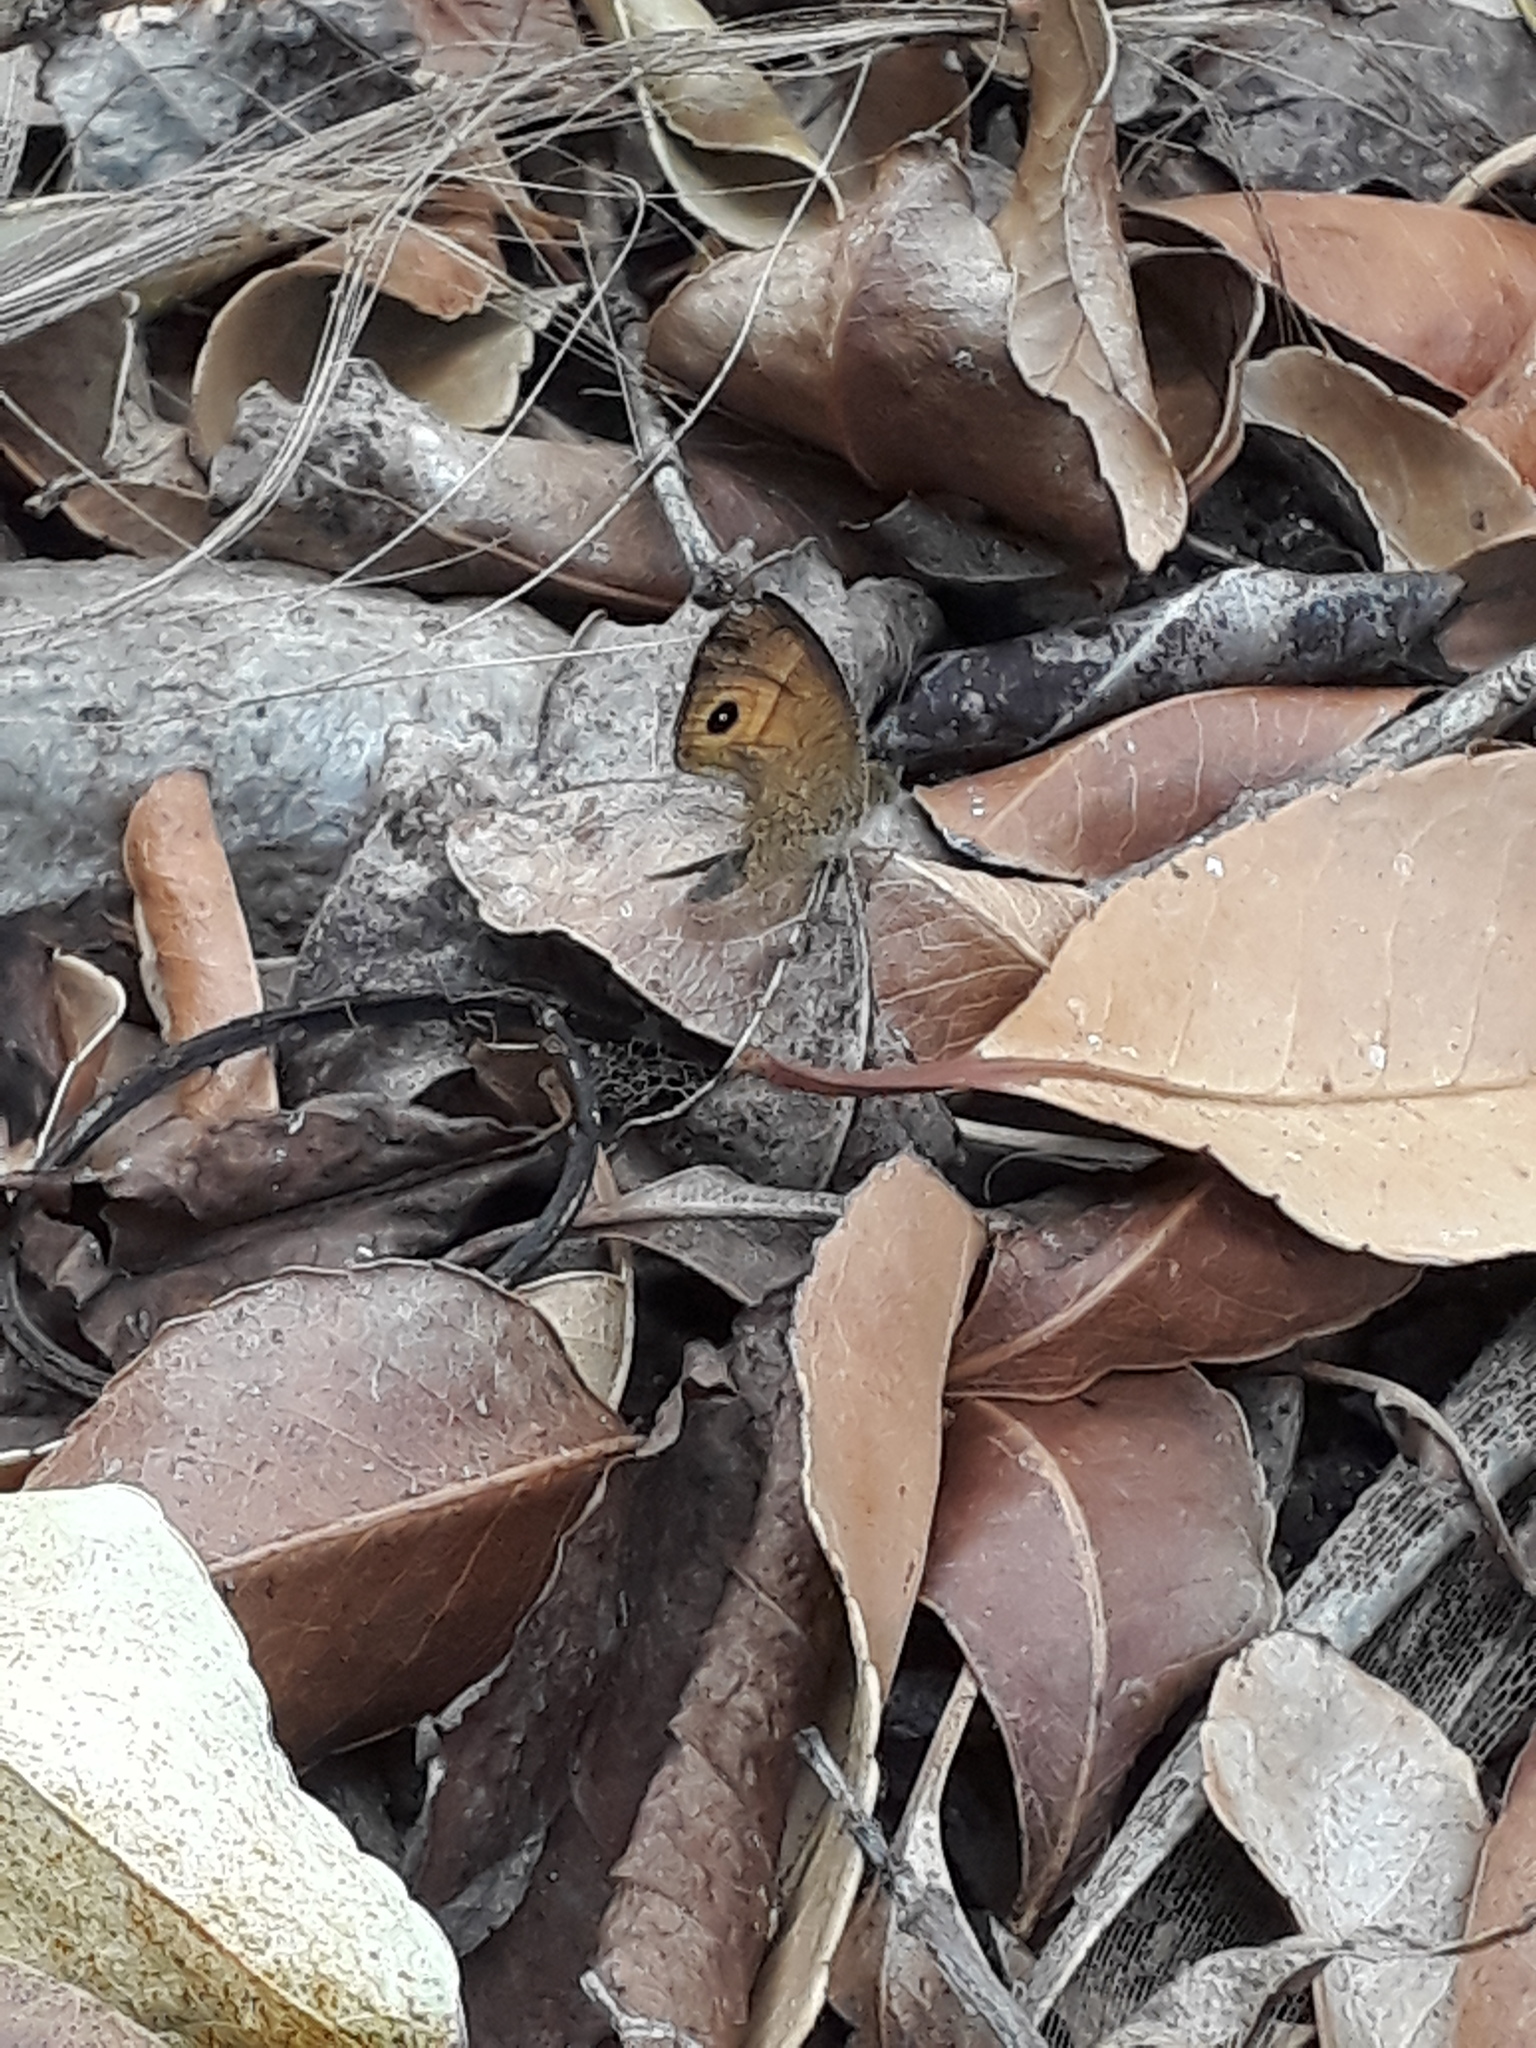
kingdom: Animalia
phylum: Arthropoda
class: Insecta
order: Lepidoptera
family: Nymphalidae
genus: Henotesia
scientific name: Henotesia narcissus
